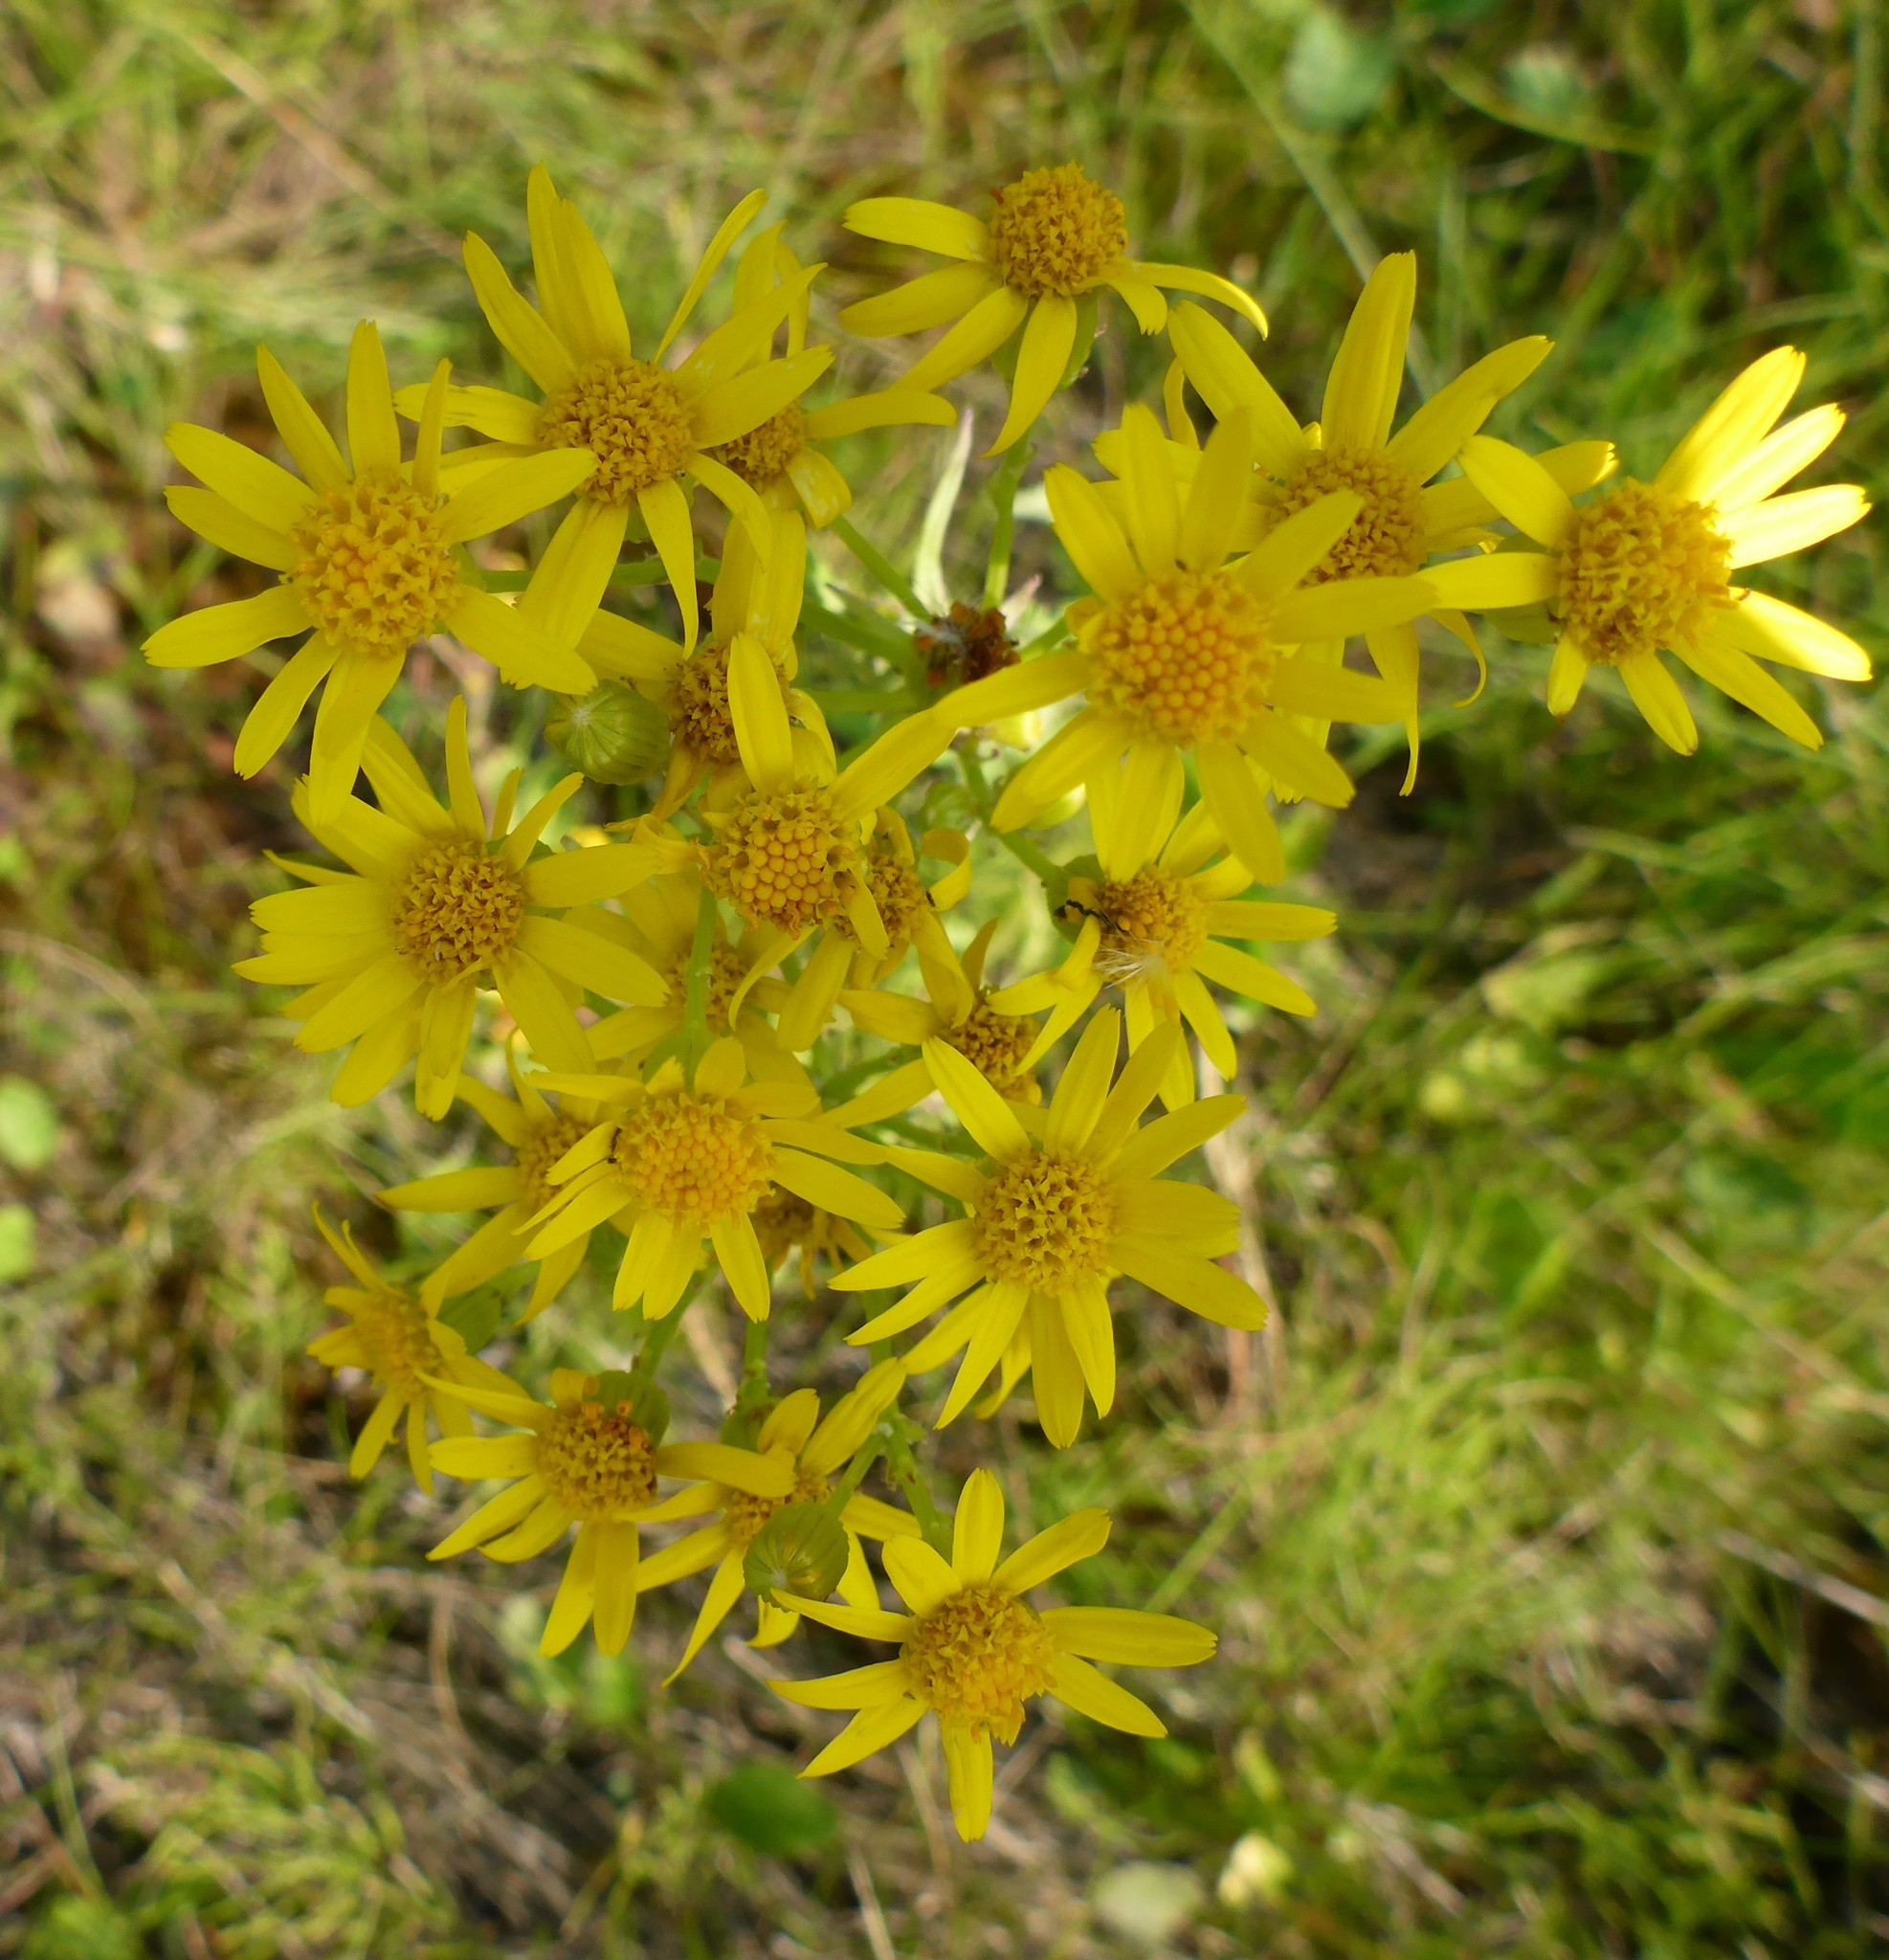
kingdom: Plantae
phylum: Tracheophyta
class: Magnoliopsida
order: Asterales
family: Asteraceae
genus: Packera
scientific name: Packera paupercula
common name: Balsam groundsel
